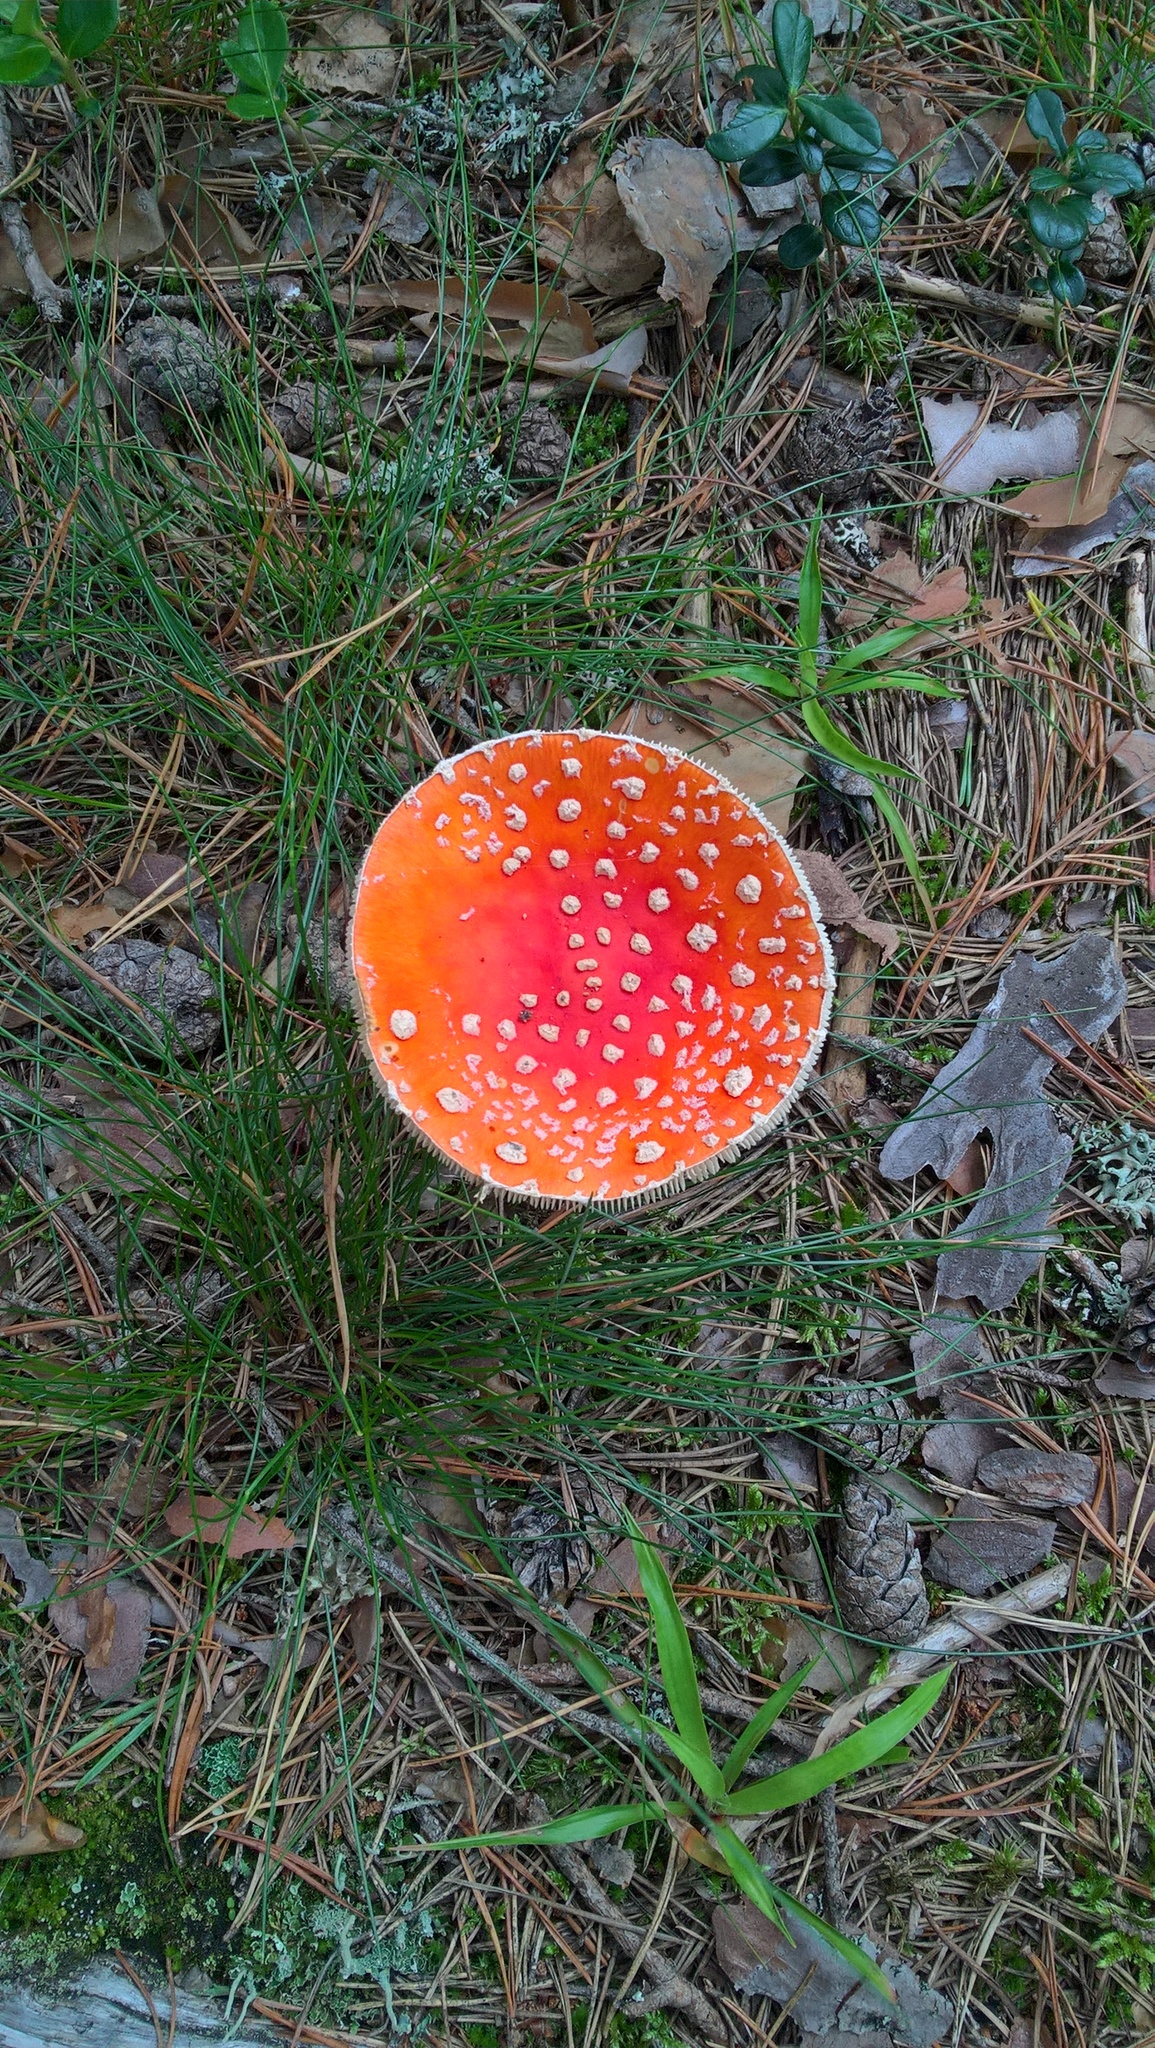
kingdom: Fungi
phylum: Basidiomycota
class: Agaricomycetes
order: Agaricales
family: Amanitaceae
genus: Amanita
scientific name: Amanita muscaria
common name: Fly agaric
